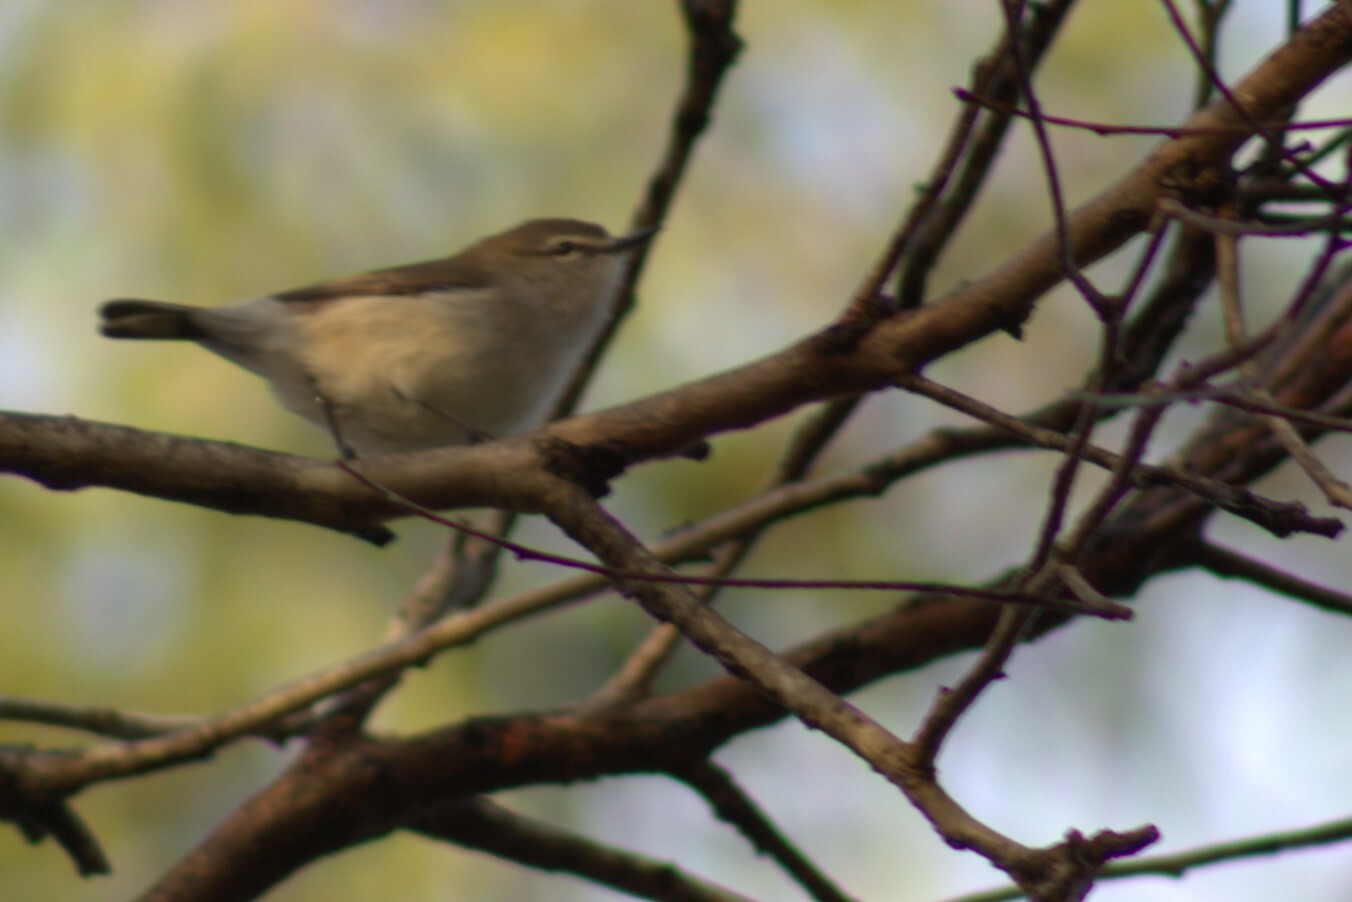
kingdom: Animalia
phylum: Chordata
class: Aves
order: Passeriformes
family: Acanthizidae
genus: Gerygone
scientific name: Gerygone levigaster
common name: Mangrove gerygone
